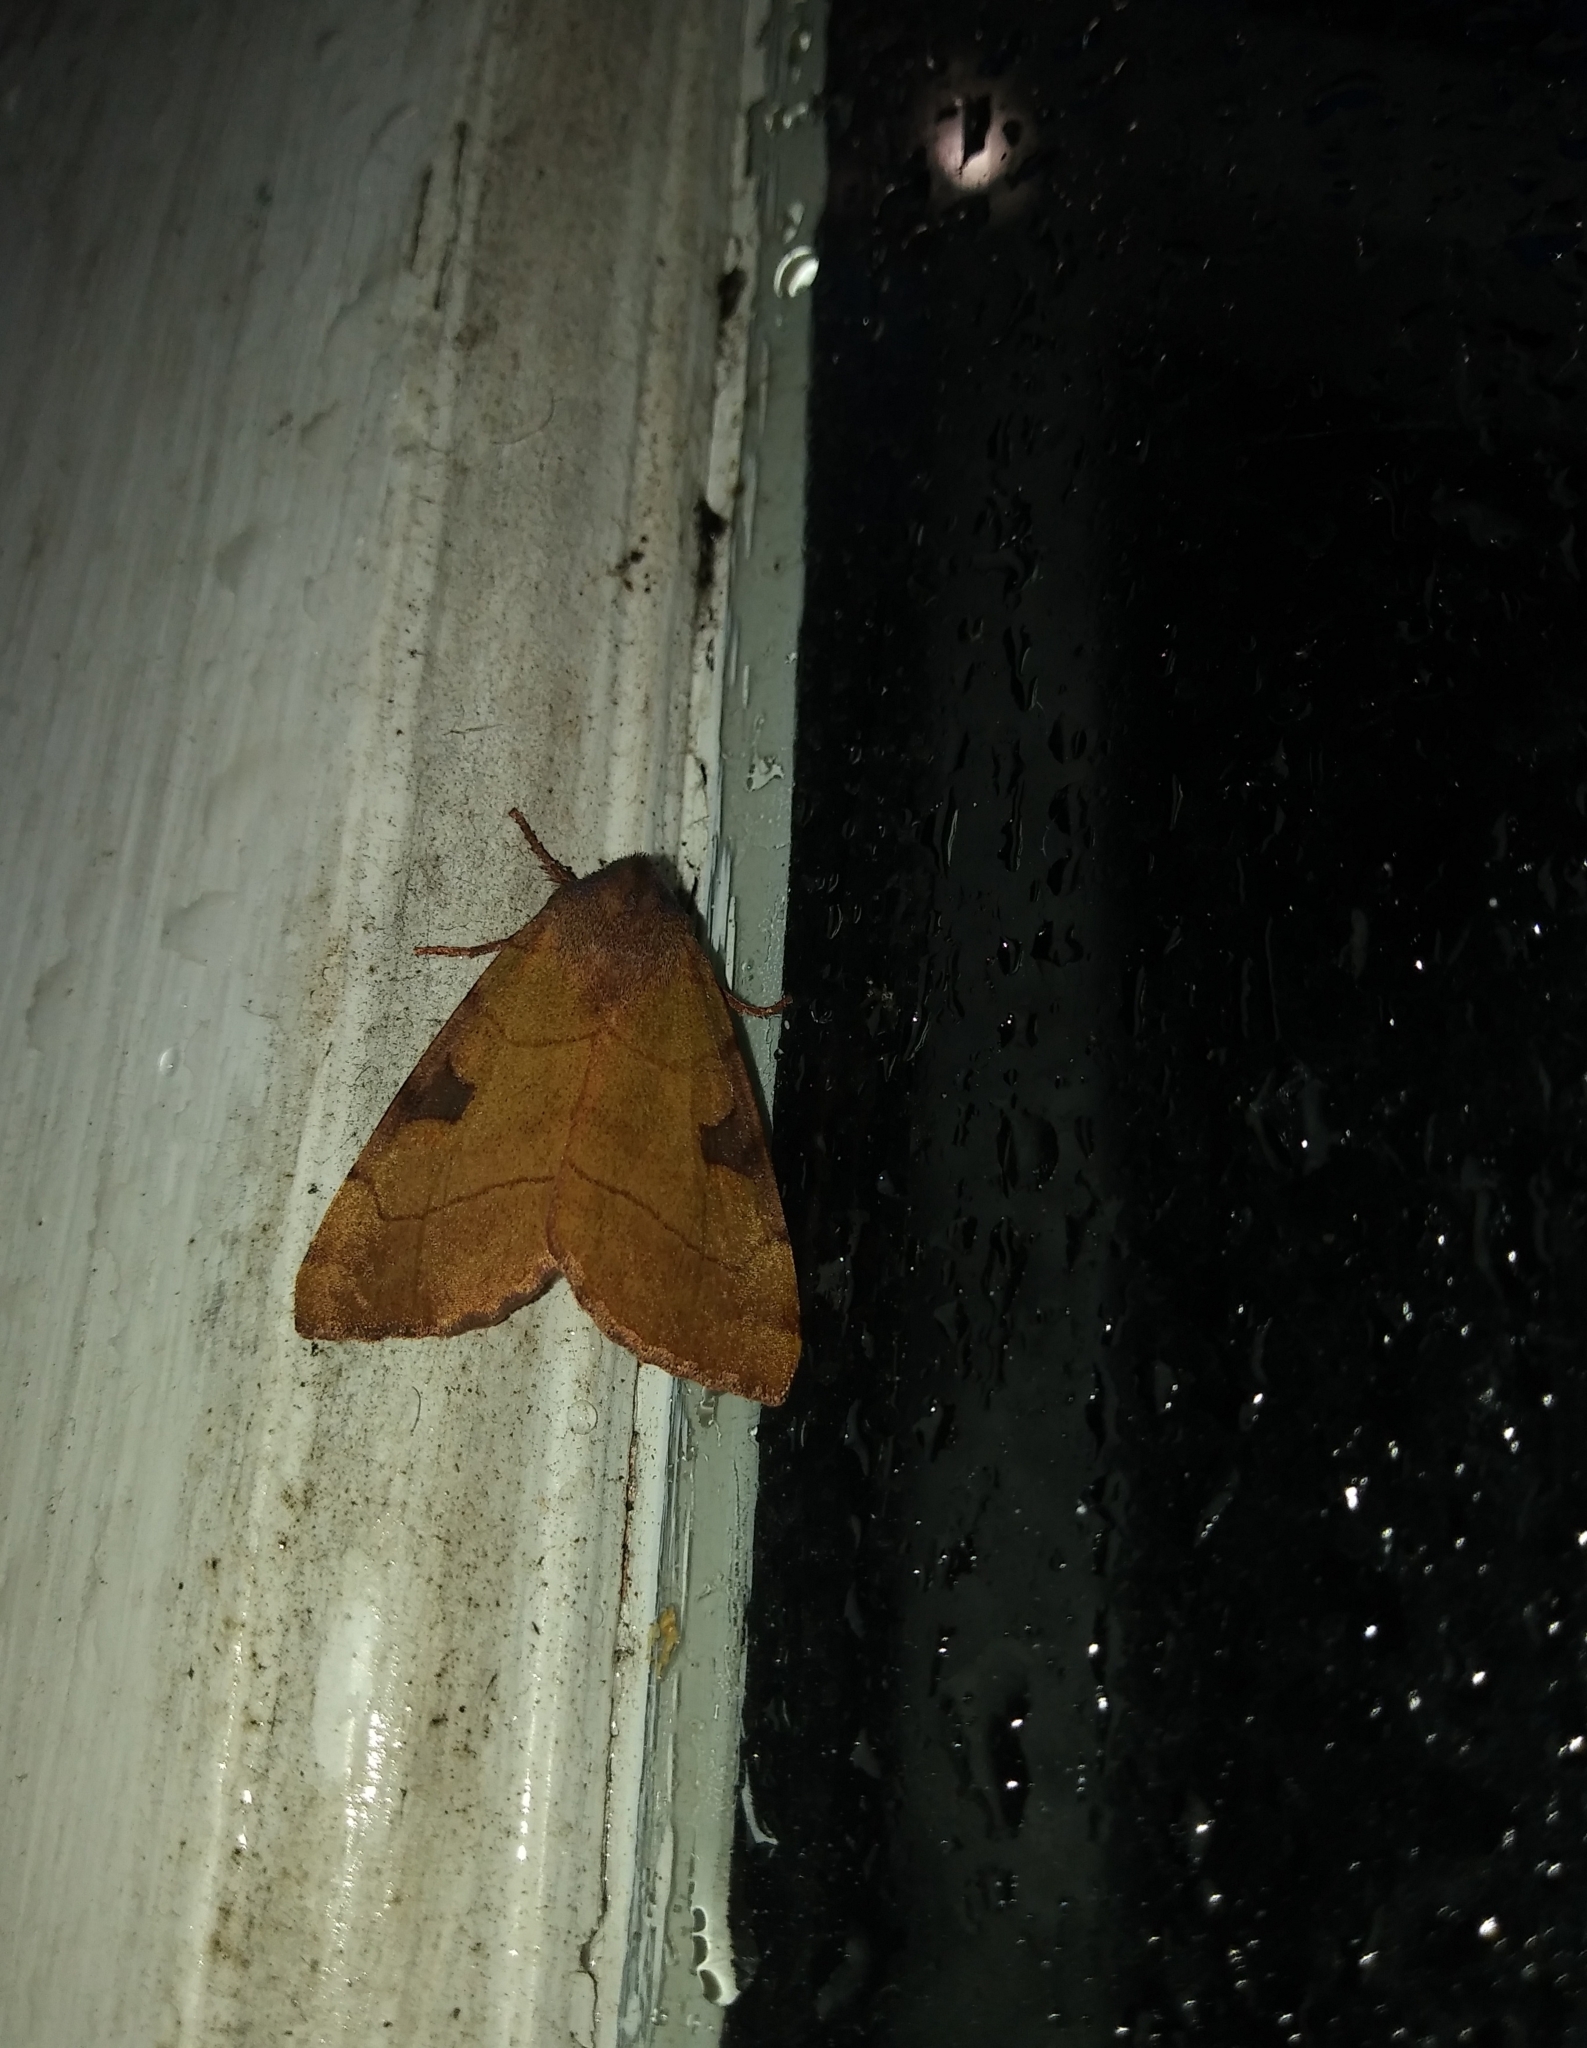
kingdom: Animalia
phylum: Arthropoda
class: Insecta
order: Lepidoptera
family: Noctuidae
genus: Choephora
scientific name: Choephora fungorum
